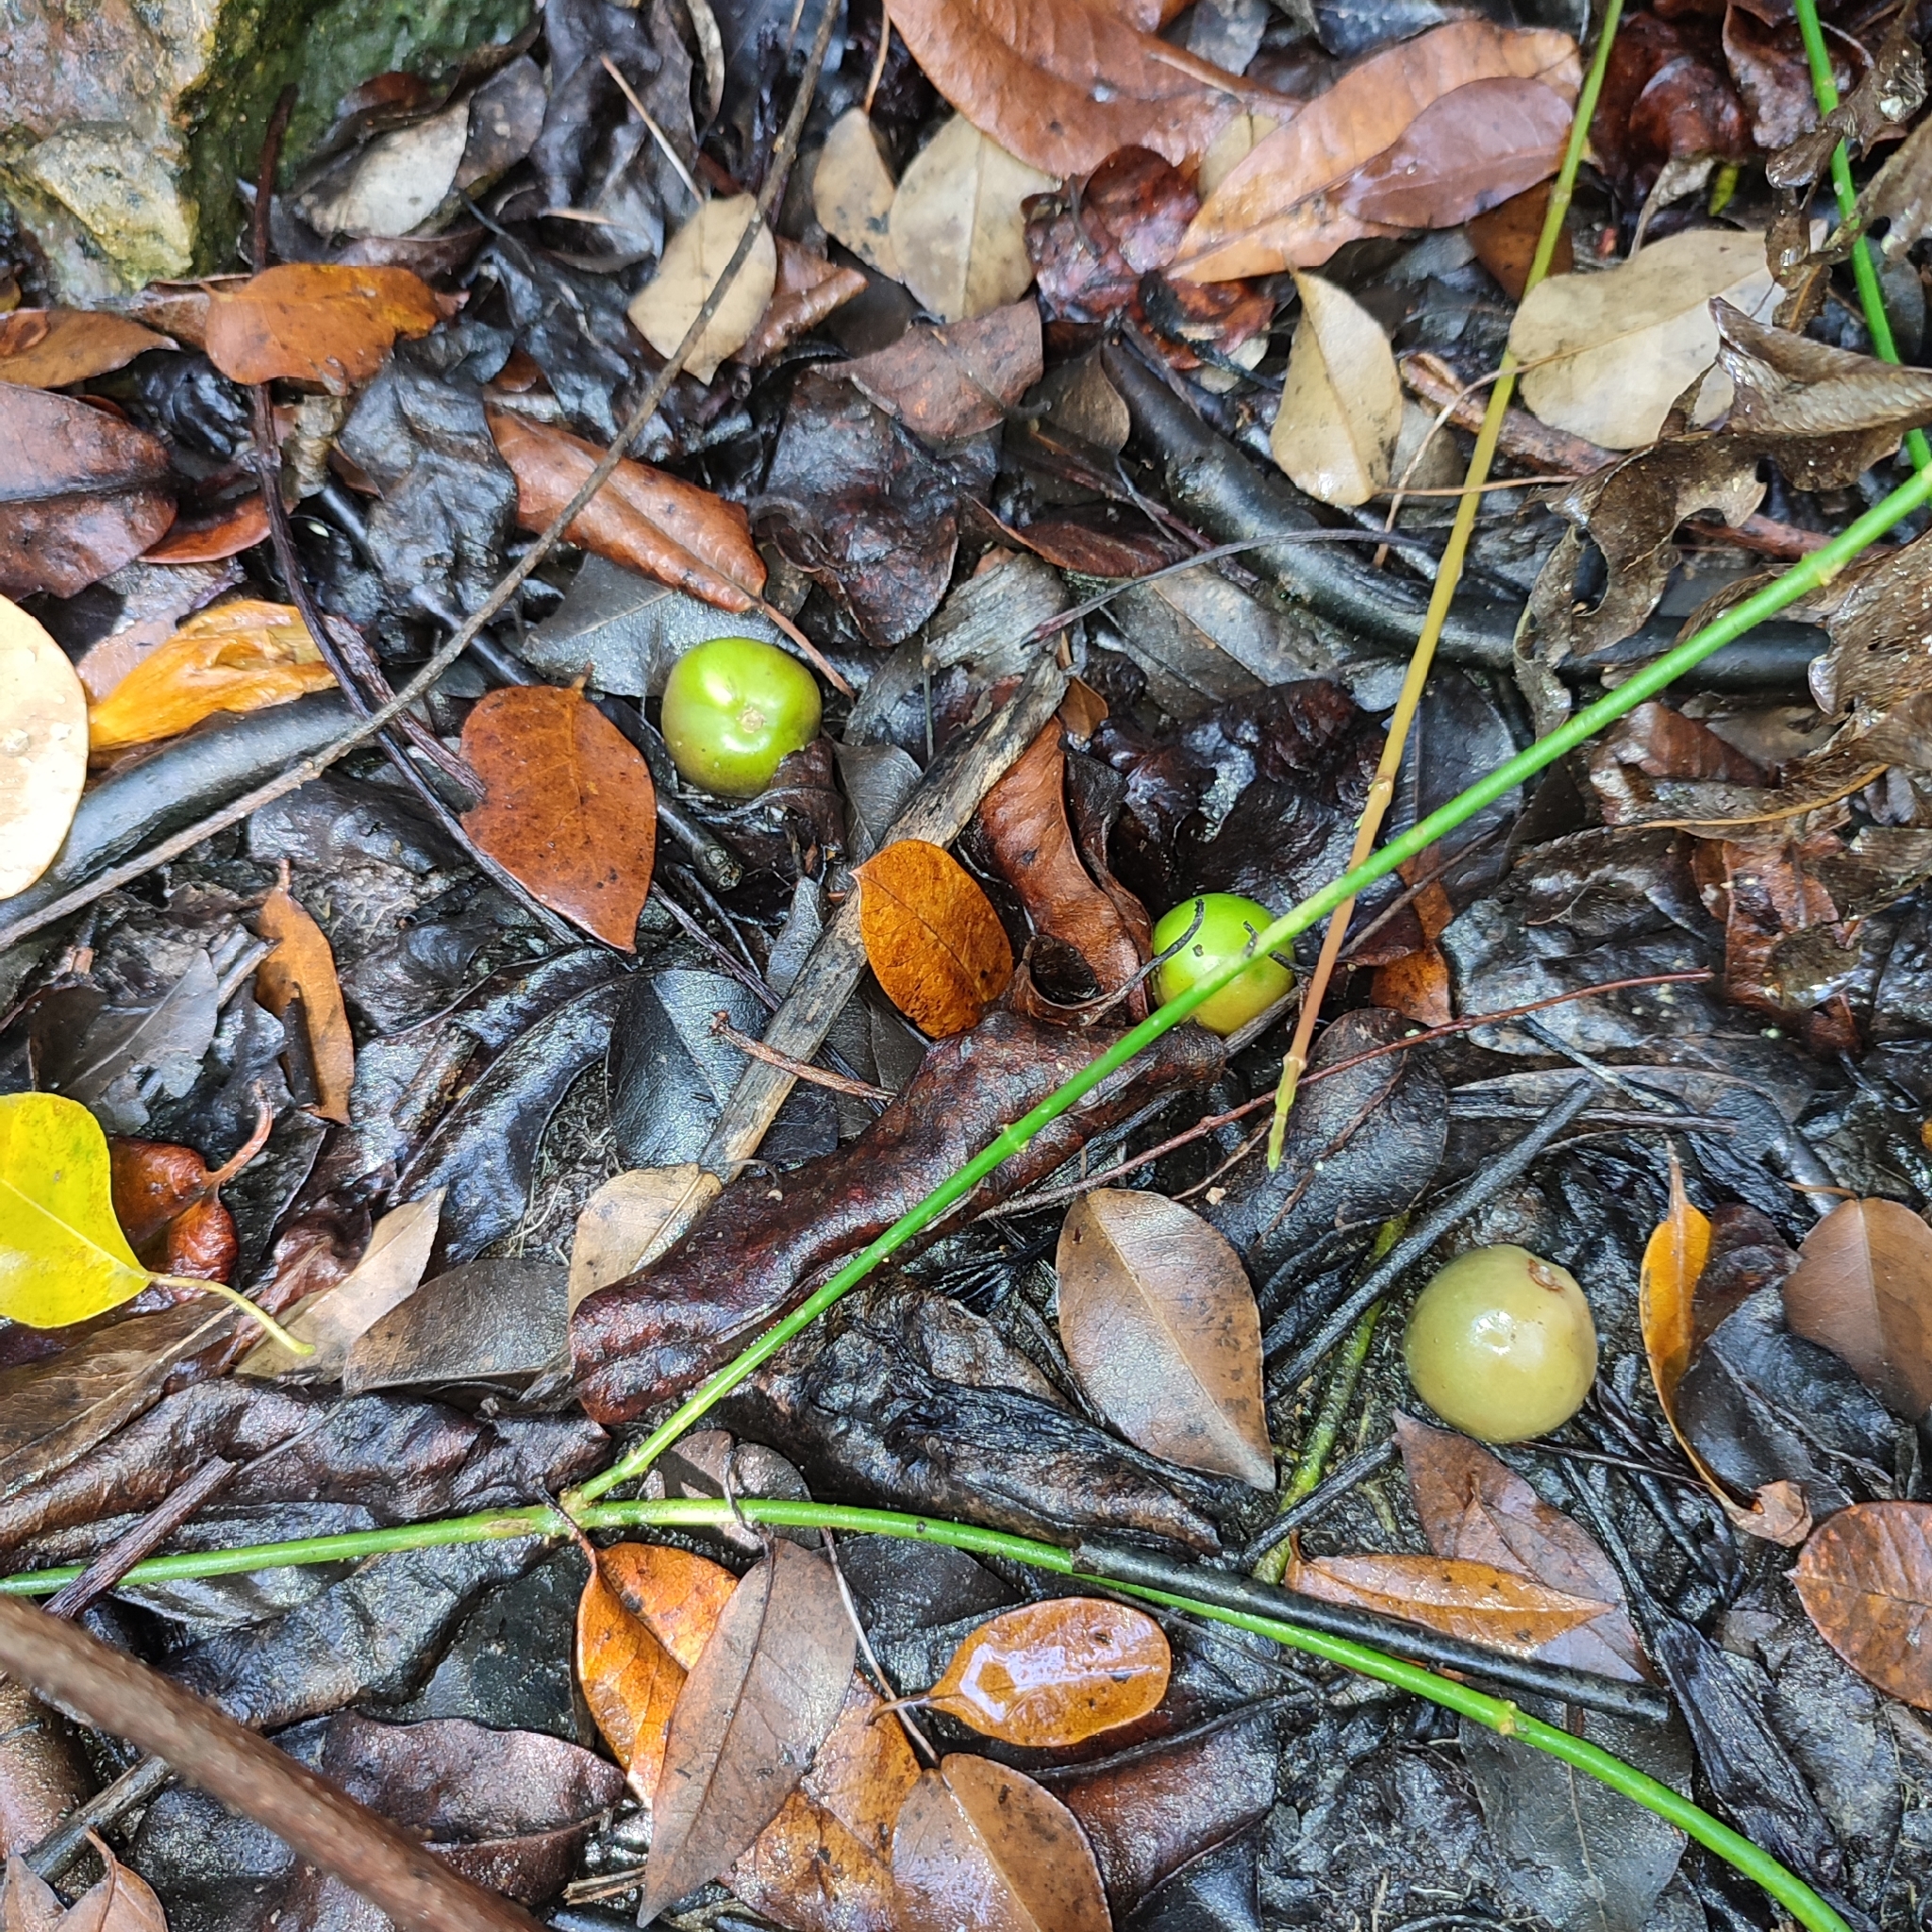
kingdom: Plantae
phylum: Tracheophyta
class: Magnoliopsida
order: Malpighiales
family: Euphorbiaceae
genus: Hippomane
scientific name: Hippomane mancinella
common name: Manchineel
